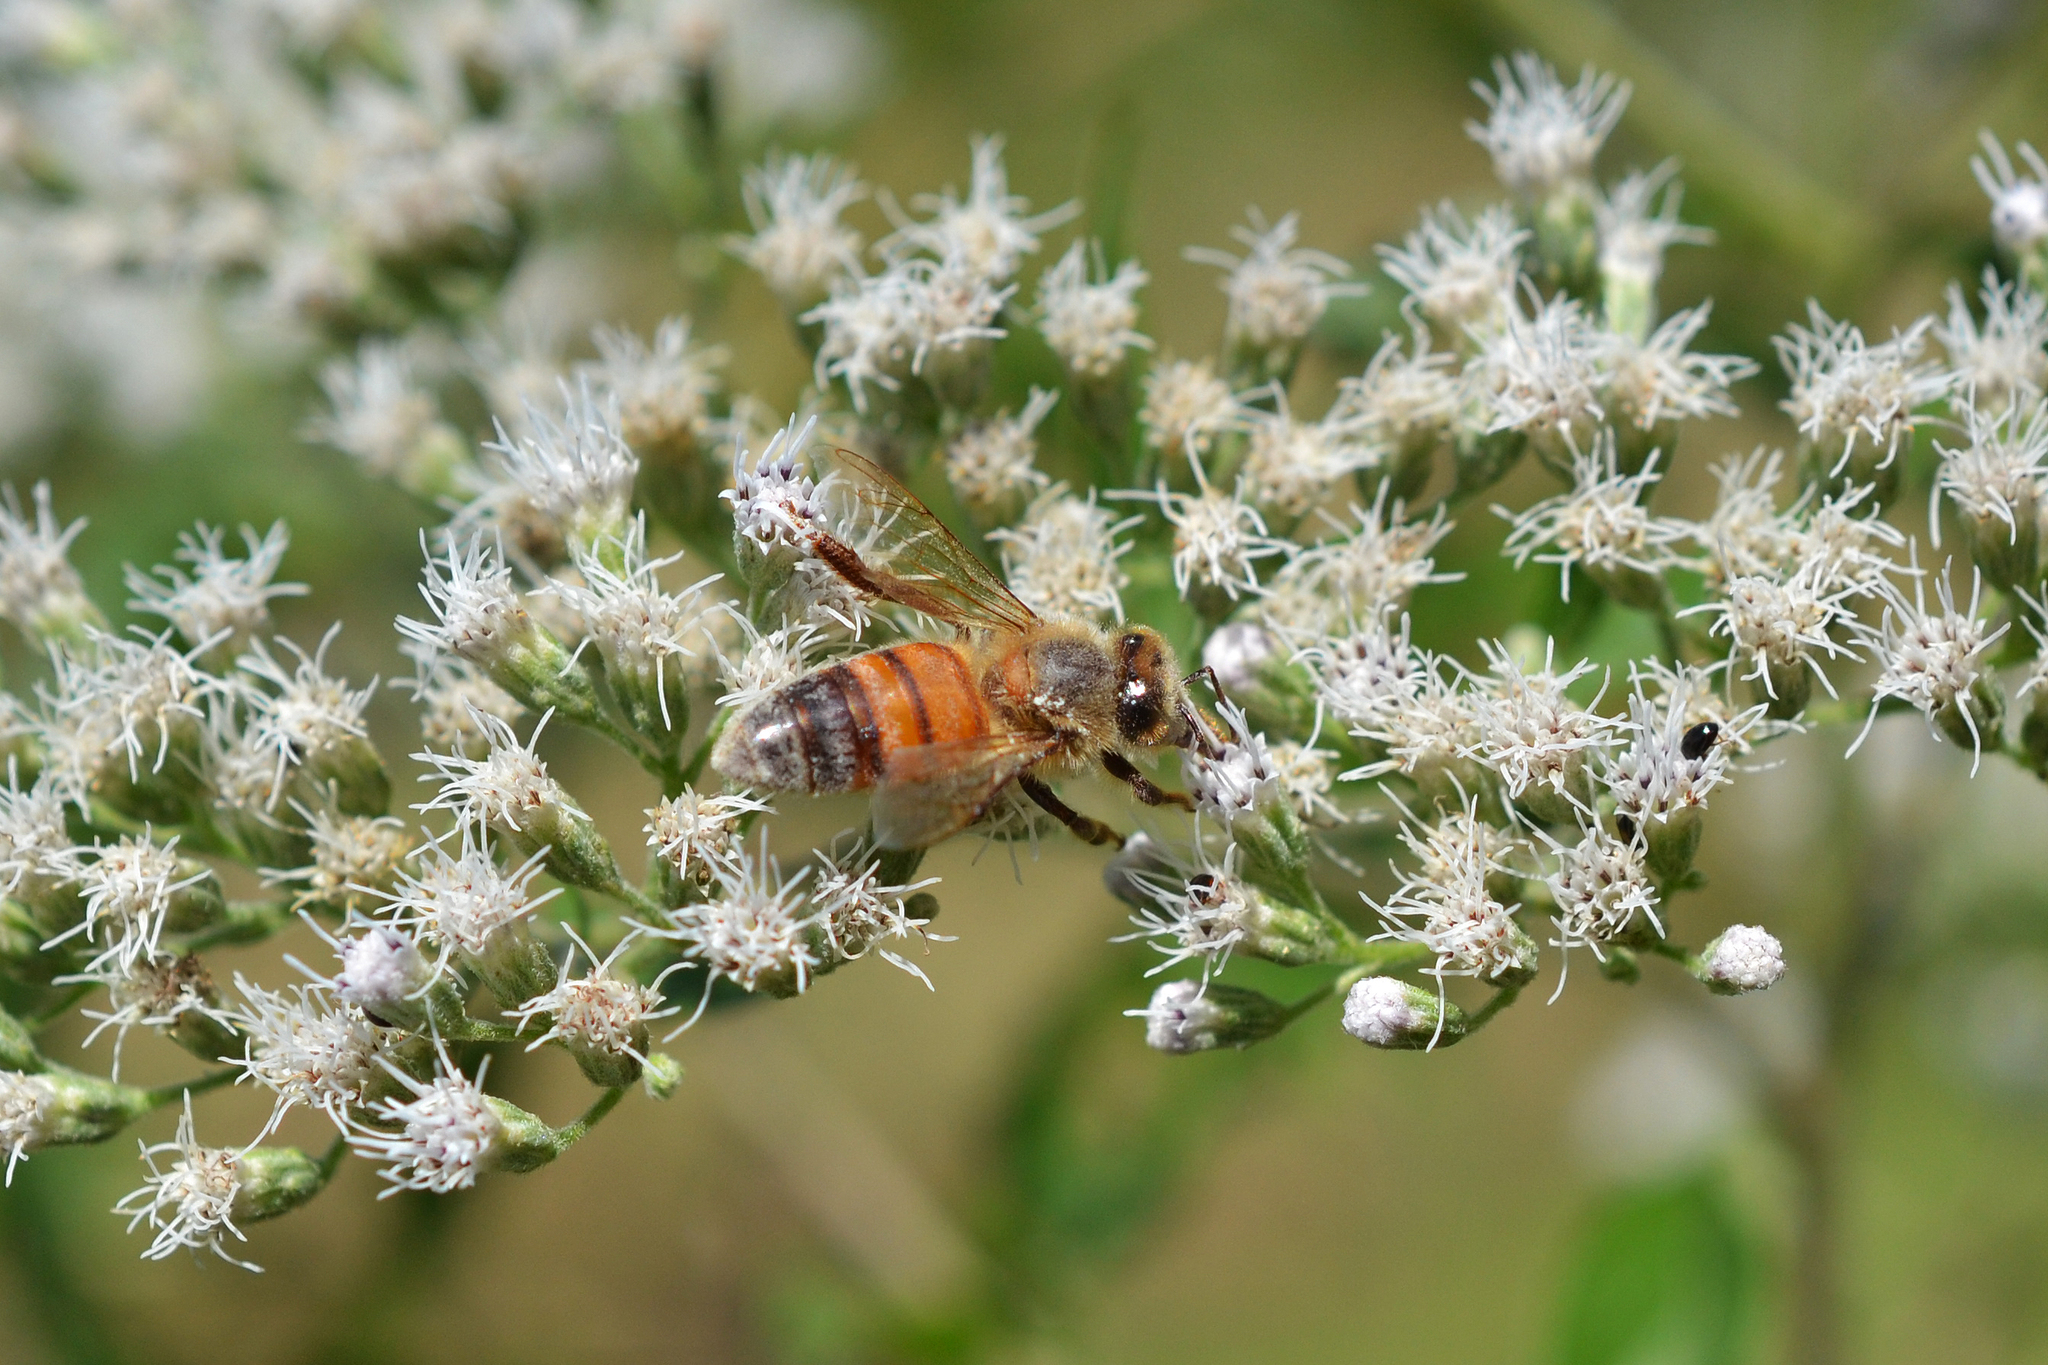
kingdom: Animalia
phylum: Arthropoda
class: Insecta
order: Hymenoptera
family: Apidae
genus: Apis
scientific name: Apis mellifera
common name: Honey bee
